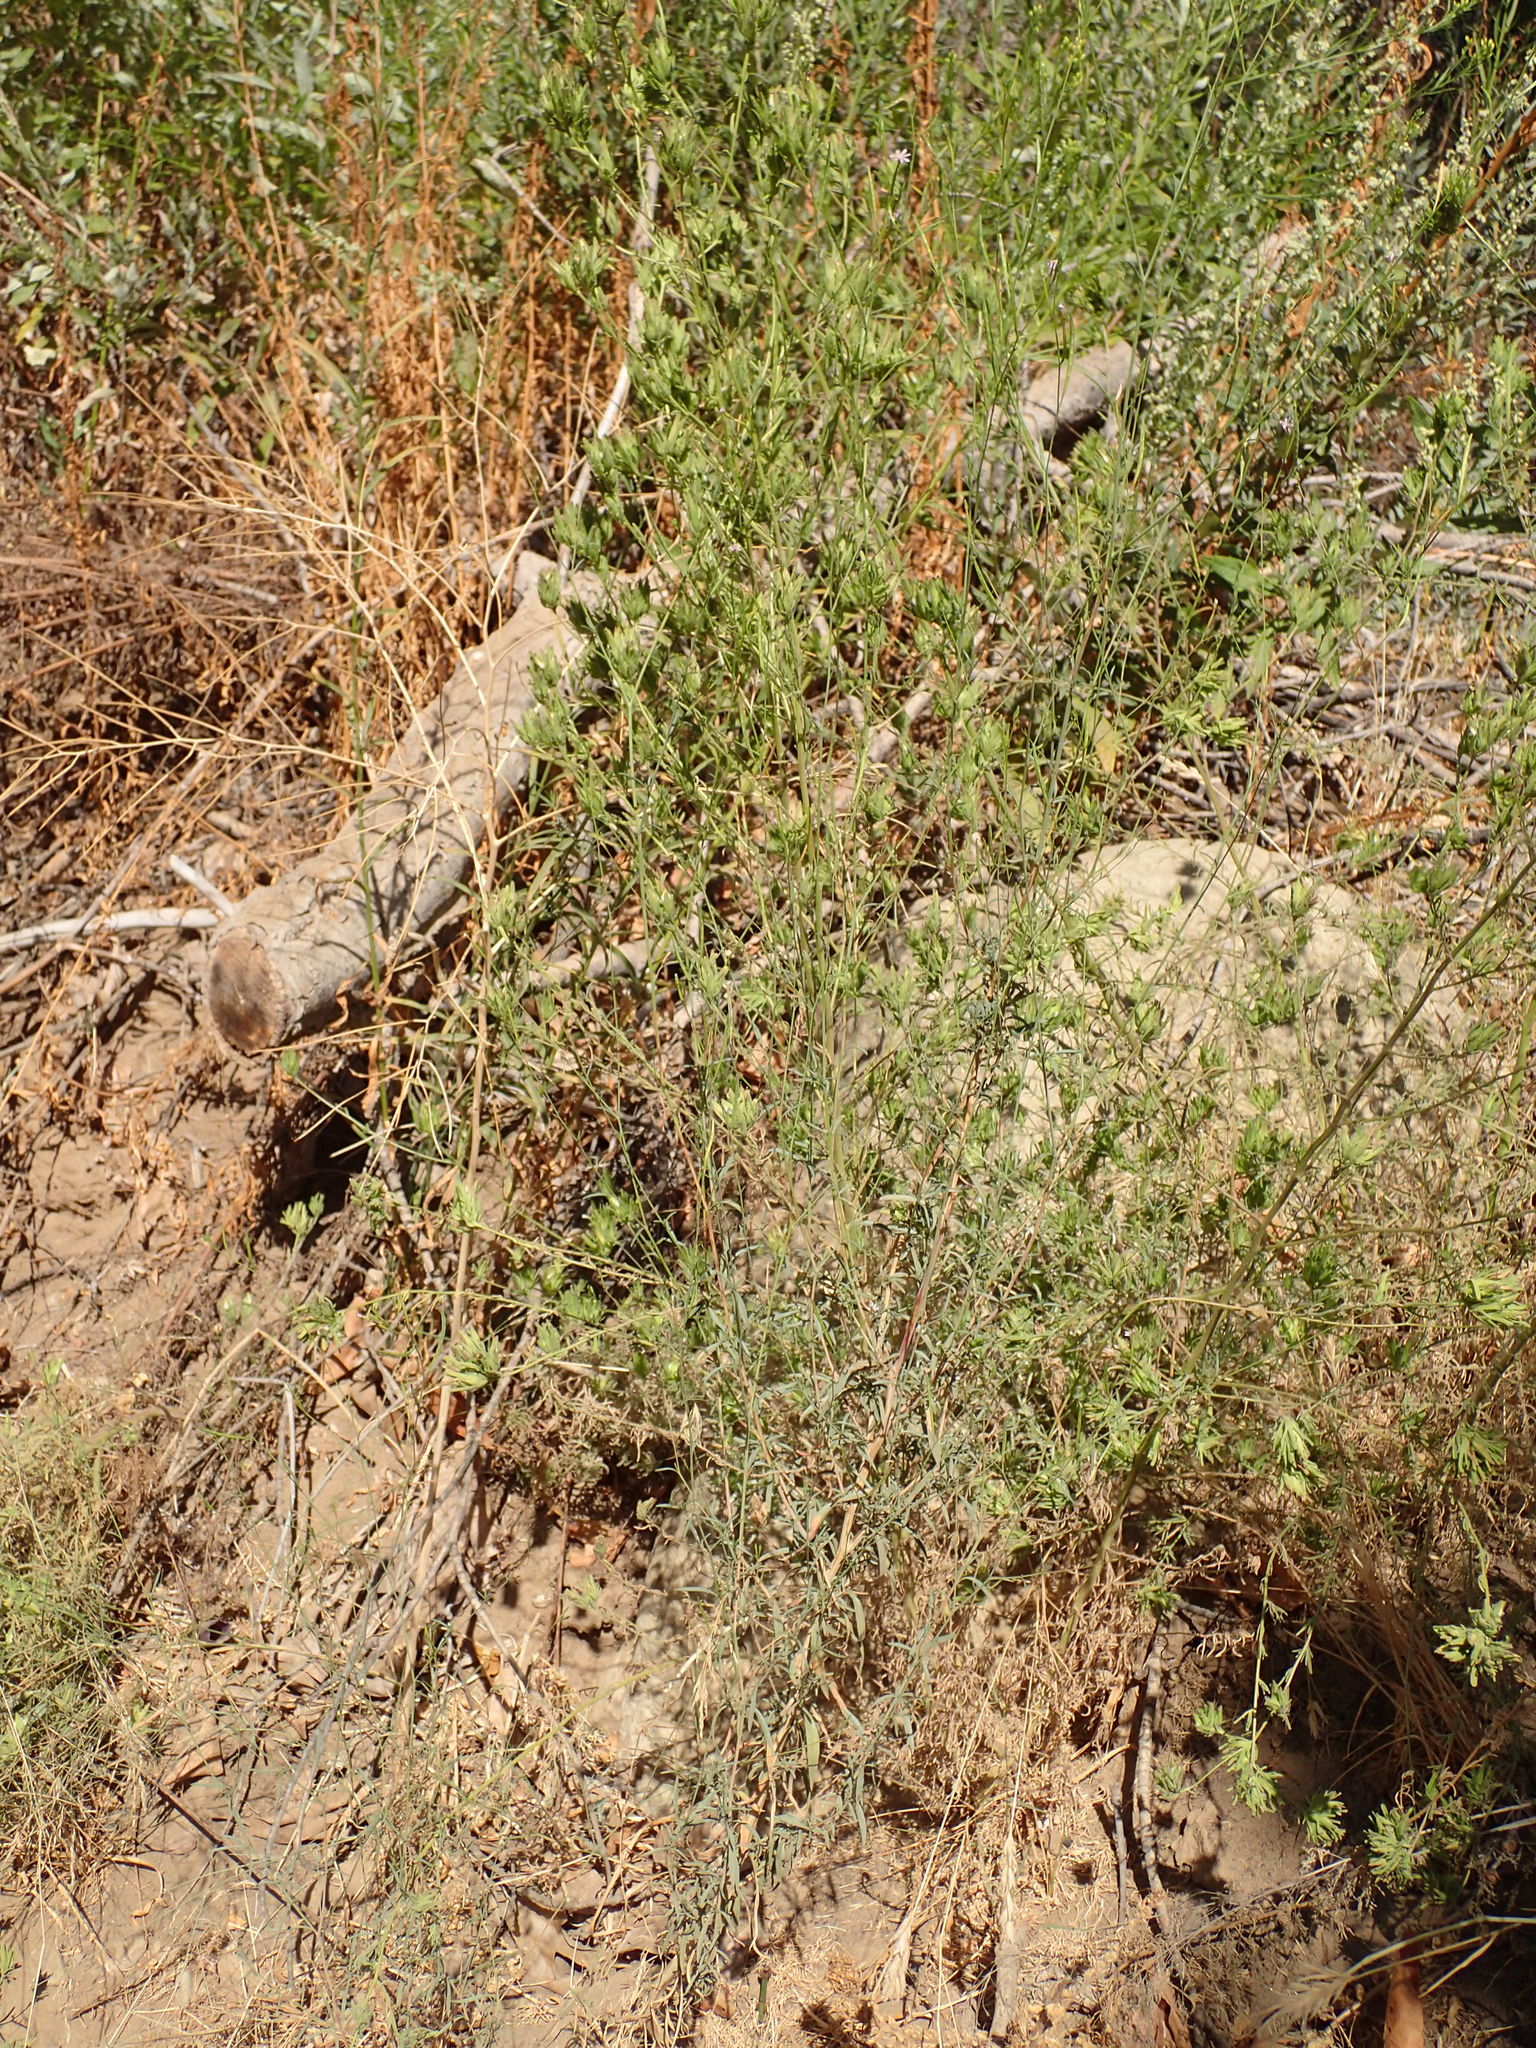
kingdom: Plantae
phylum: Tracheophyta
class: Magnoliopsida
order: Lamiales
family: Orobanchaceae
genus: Cordylanthus
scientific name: Cordylanthus rigidus
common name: Stiff-branch bird's-beak
